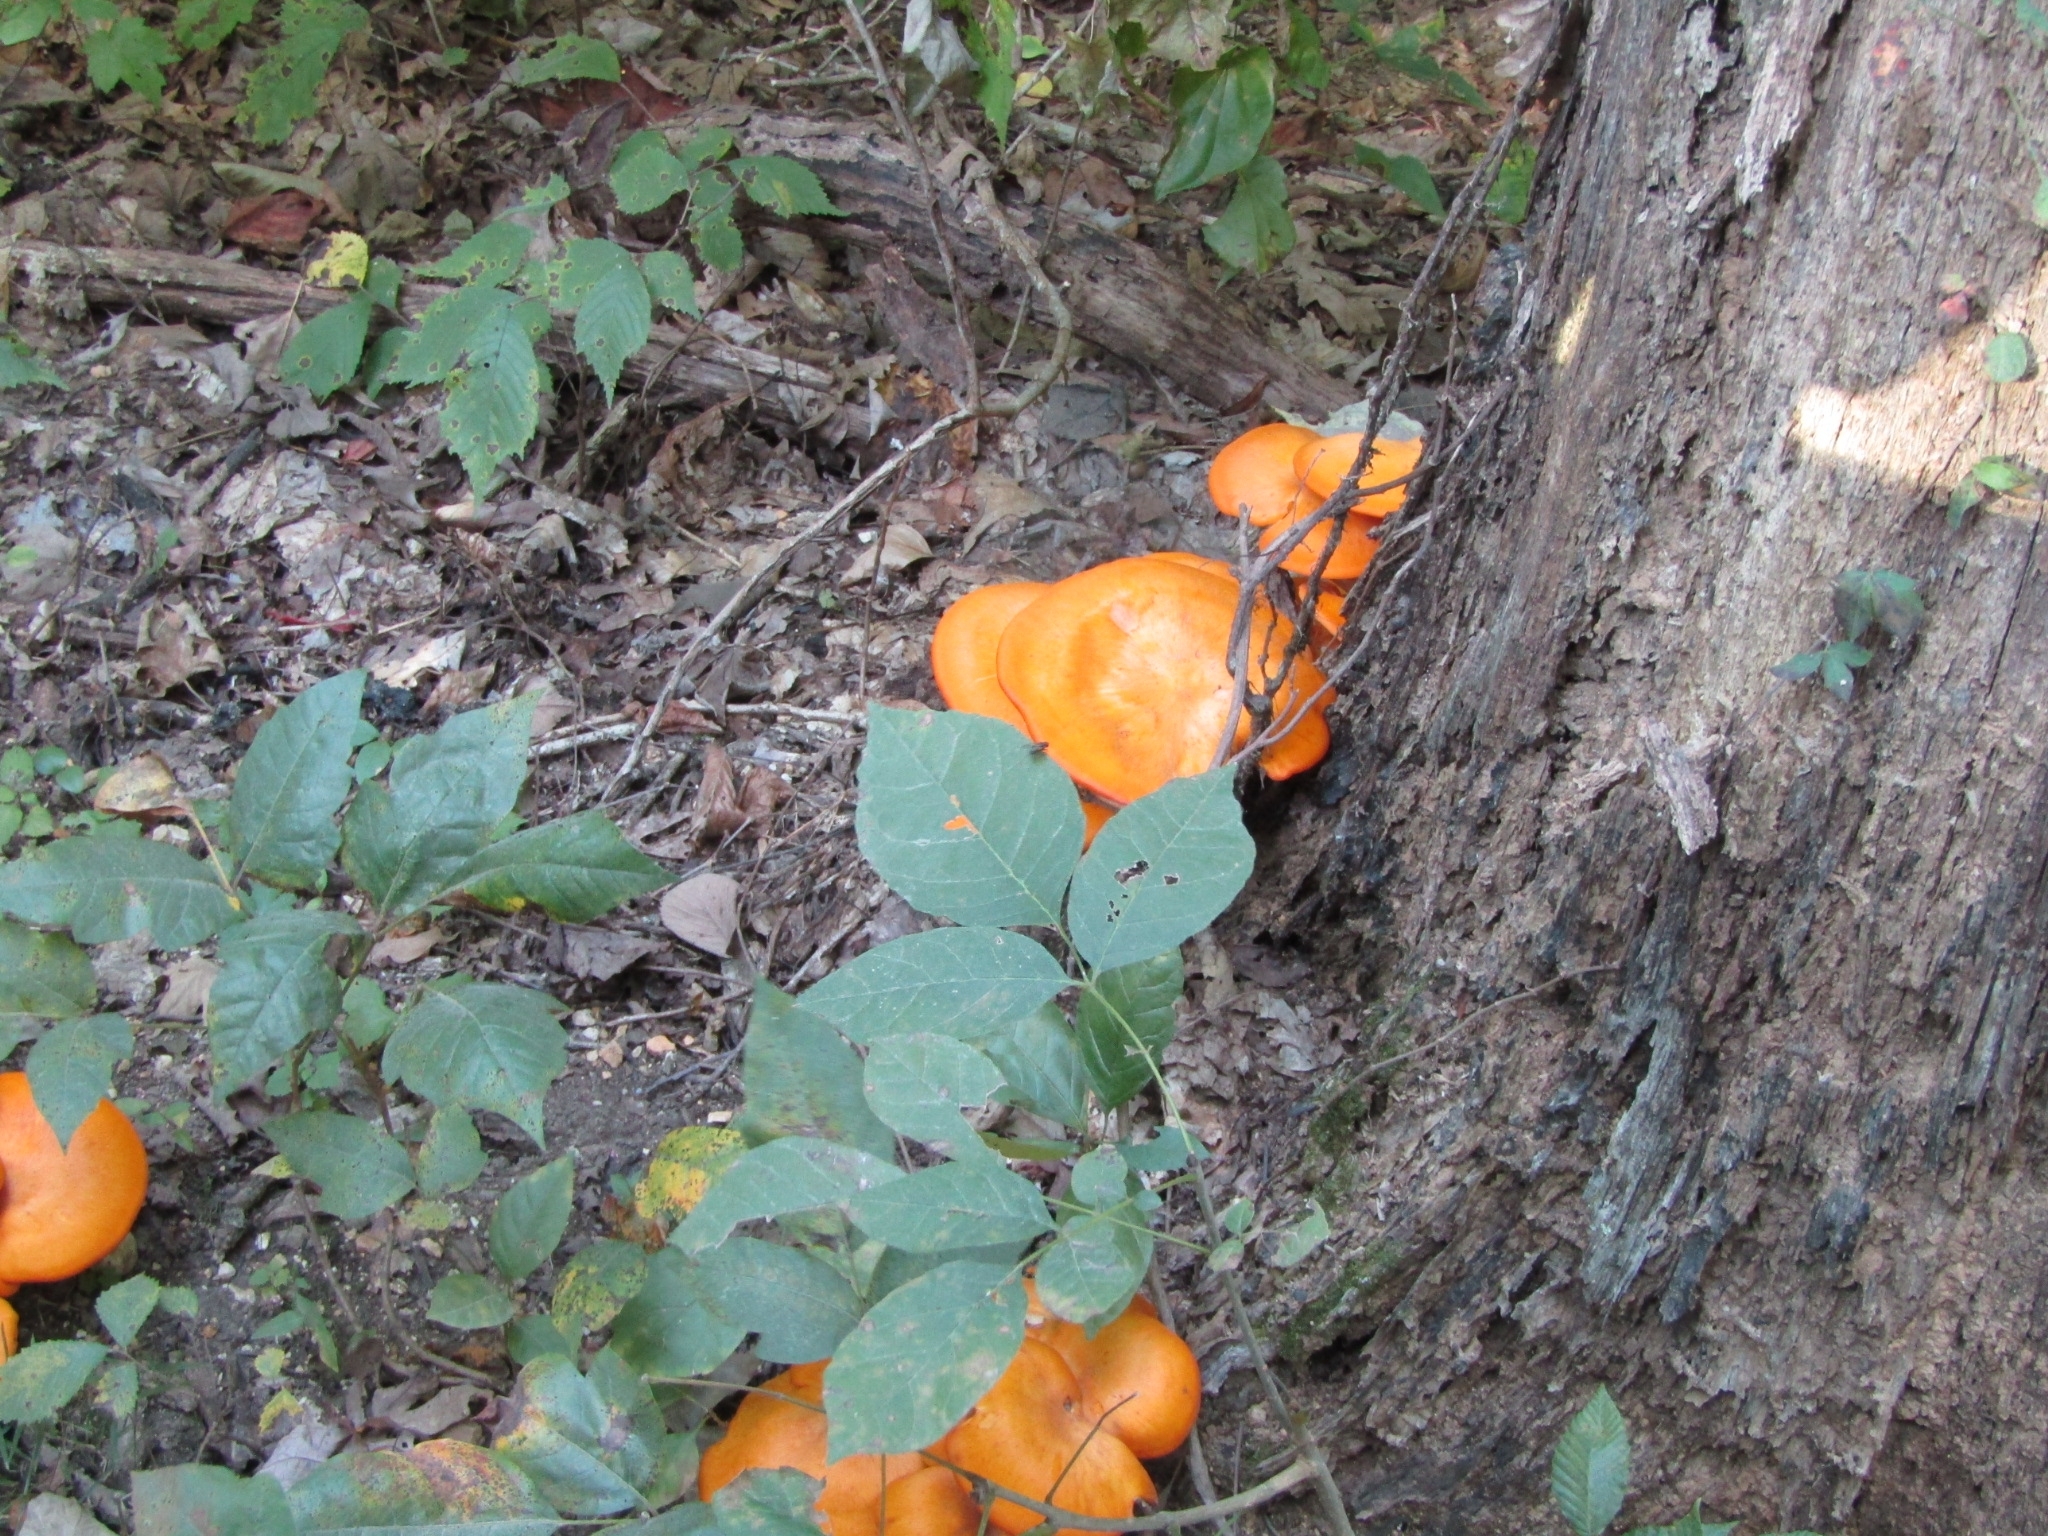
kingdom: Fungi
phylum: Basidiomycota
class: Agaricomycetes
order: Agaricales
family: Omphalotaceae
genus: Omphalotus
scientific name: Omphalotus illudens
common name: Jack o lantern
